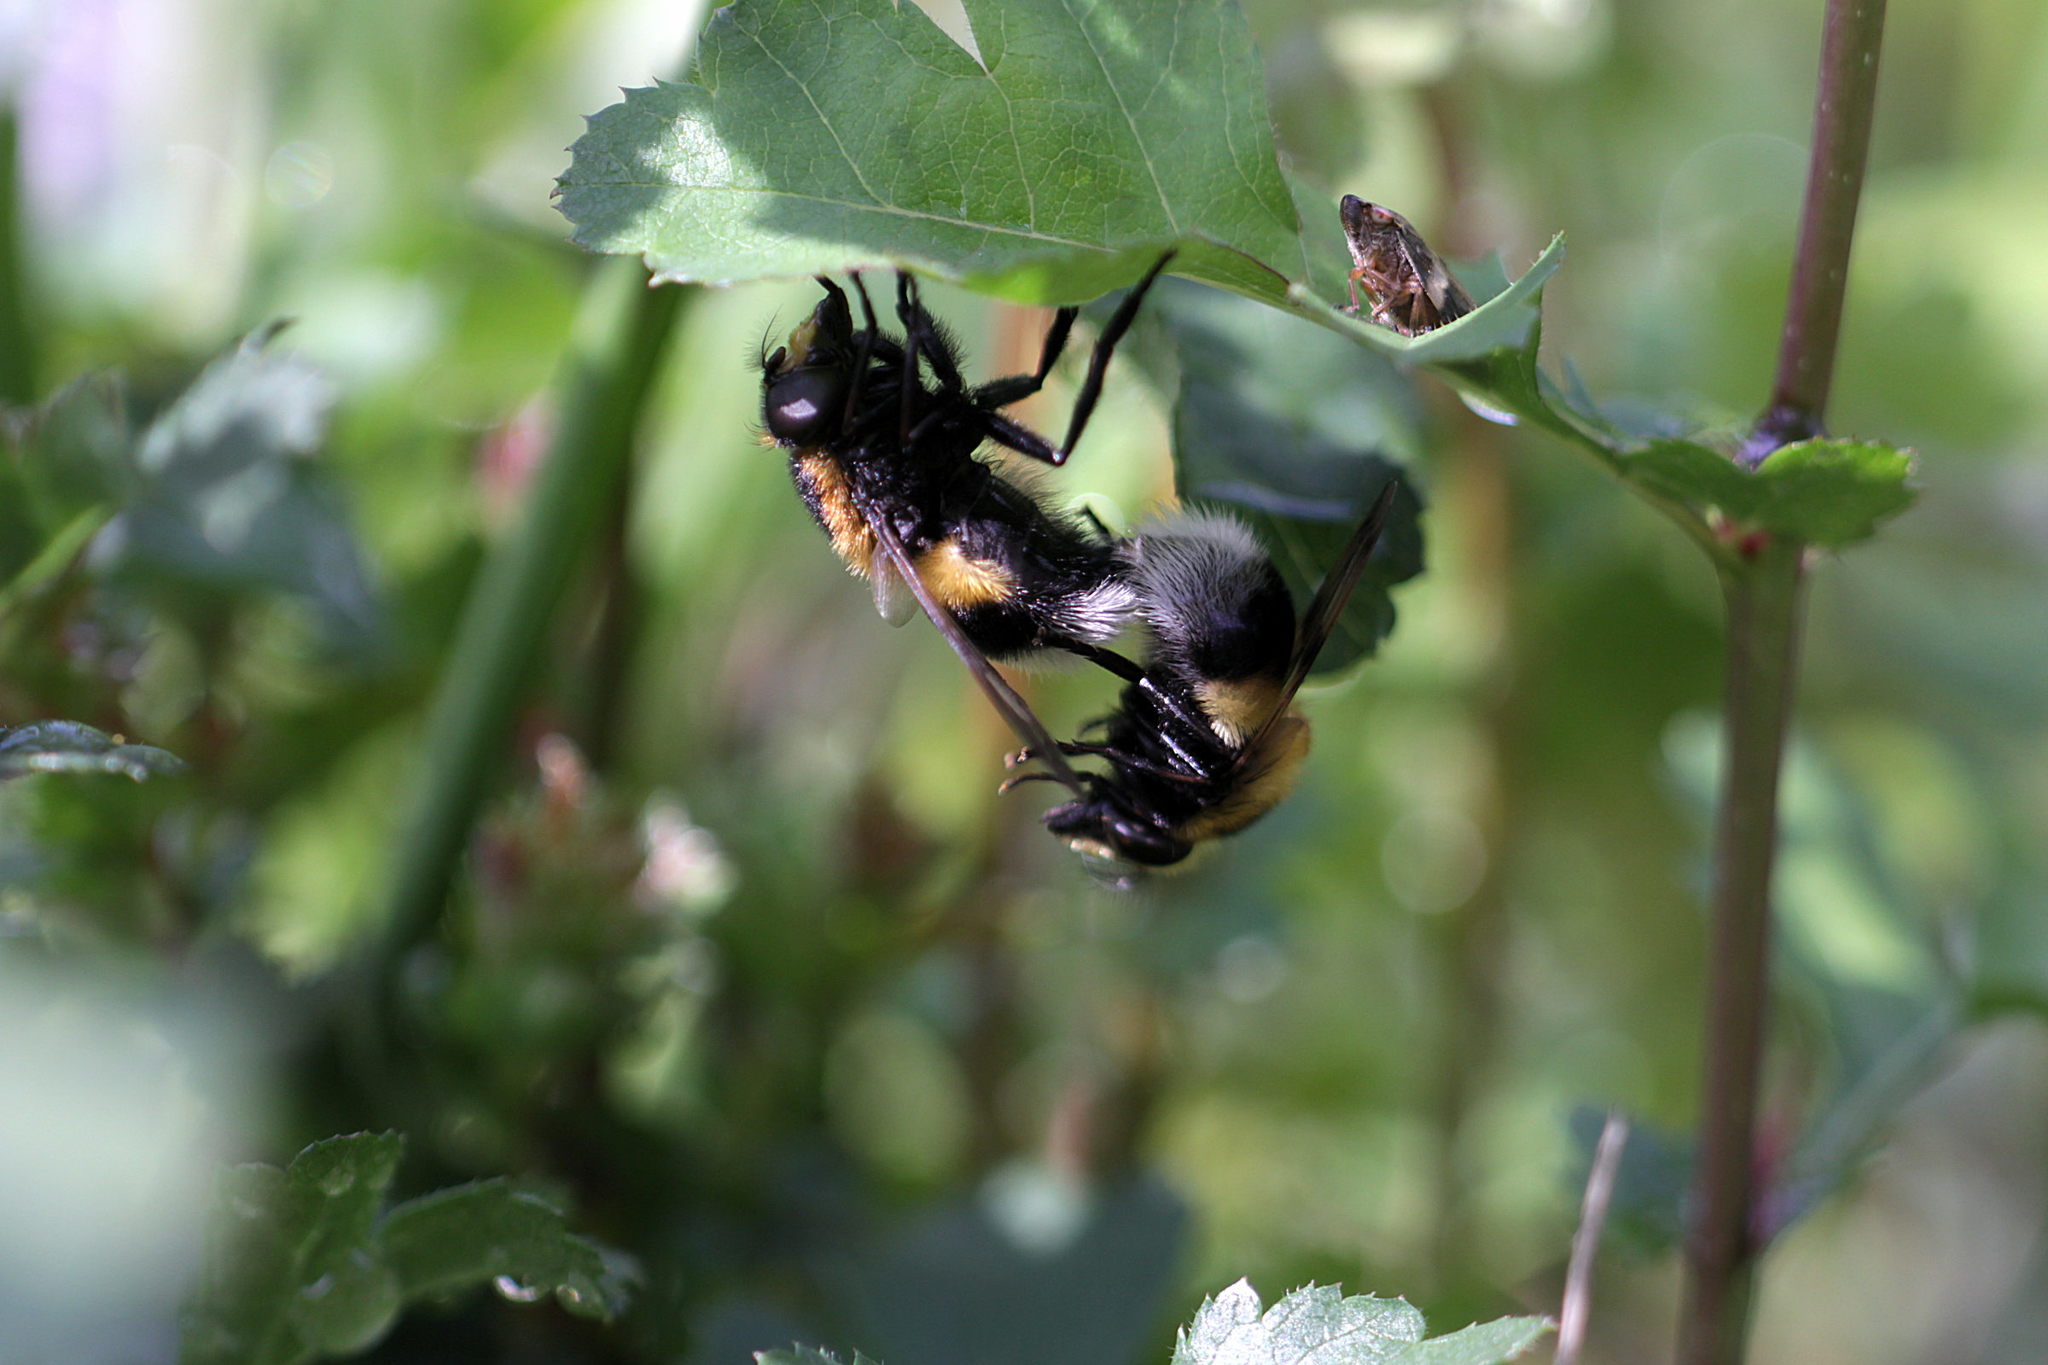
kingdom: Animalia
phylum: Arthropoda
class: Insecta
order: Diptera
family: Syrphidae
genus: Volucella
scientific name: Volucella bombylans
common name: Bumble bee hover fly
